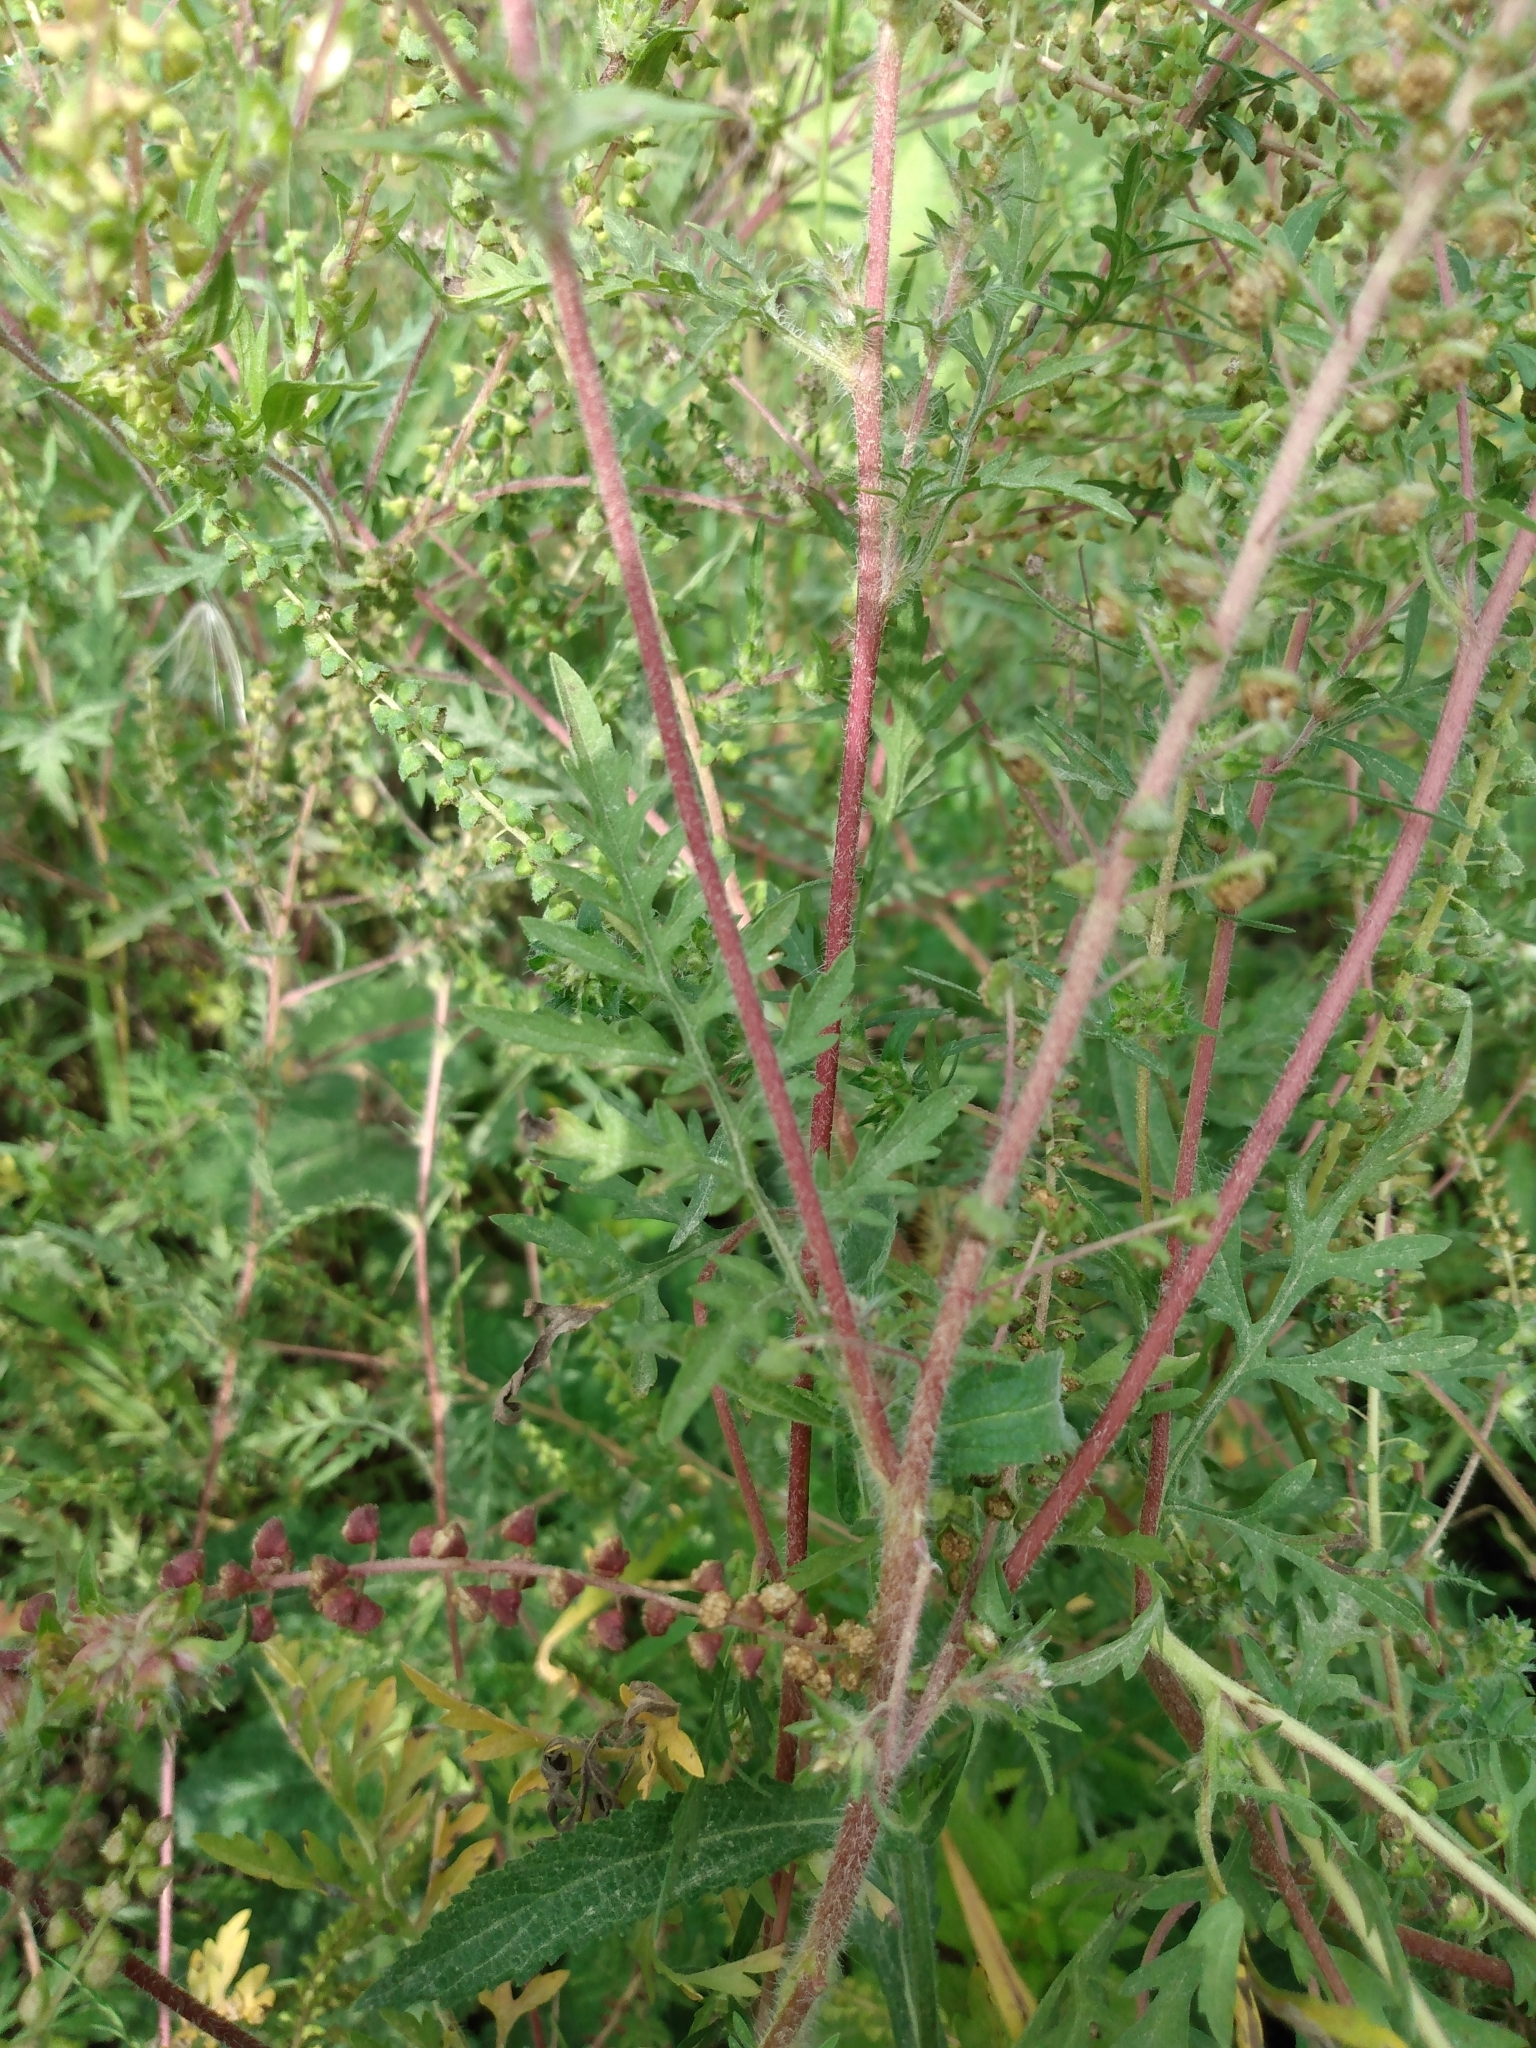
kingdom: Plantae
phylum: Tracheophyta
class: Magnoliopsida
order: Asterales
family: Asteraceae
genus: Ambrosia
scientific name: Ambrosia artemisiifolia
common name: Annual ragweed
